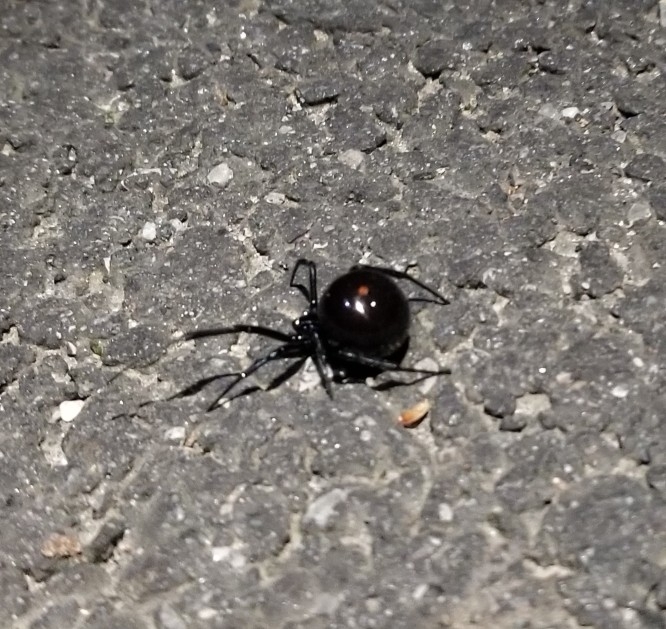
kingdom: Animalia
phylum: Arthropoda
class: Arachnida
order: Araneae
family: Theridiidae
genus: Latrodectus
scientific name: Latrodectus mactans
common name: Cobweb spiders
